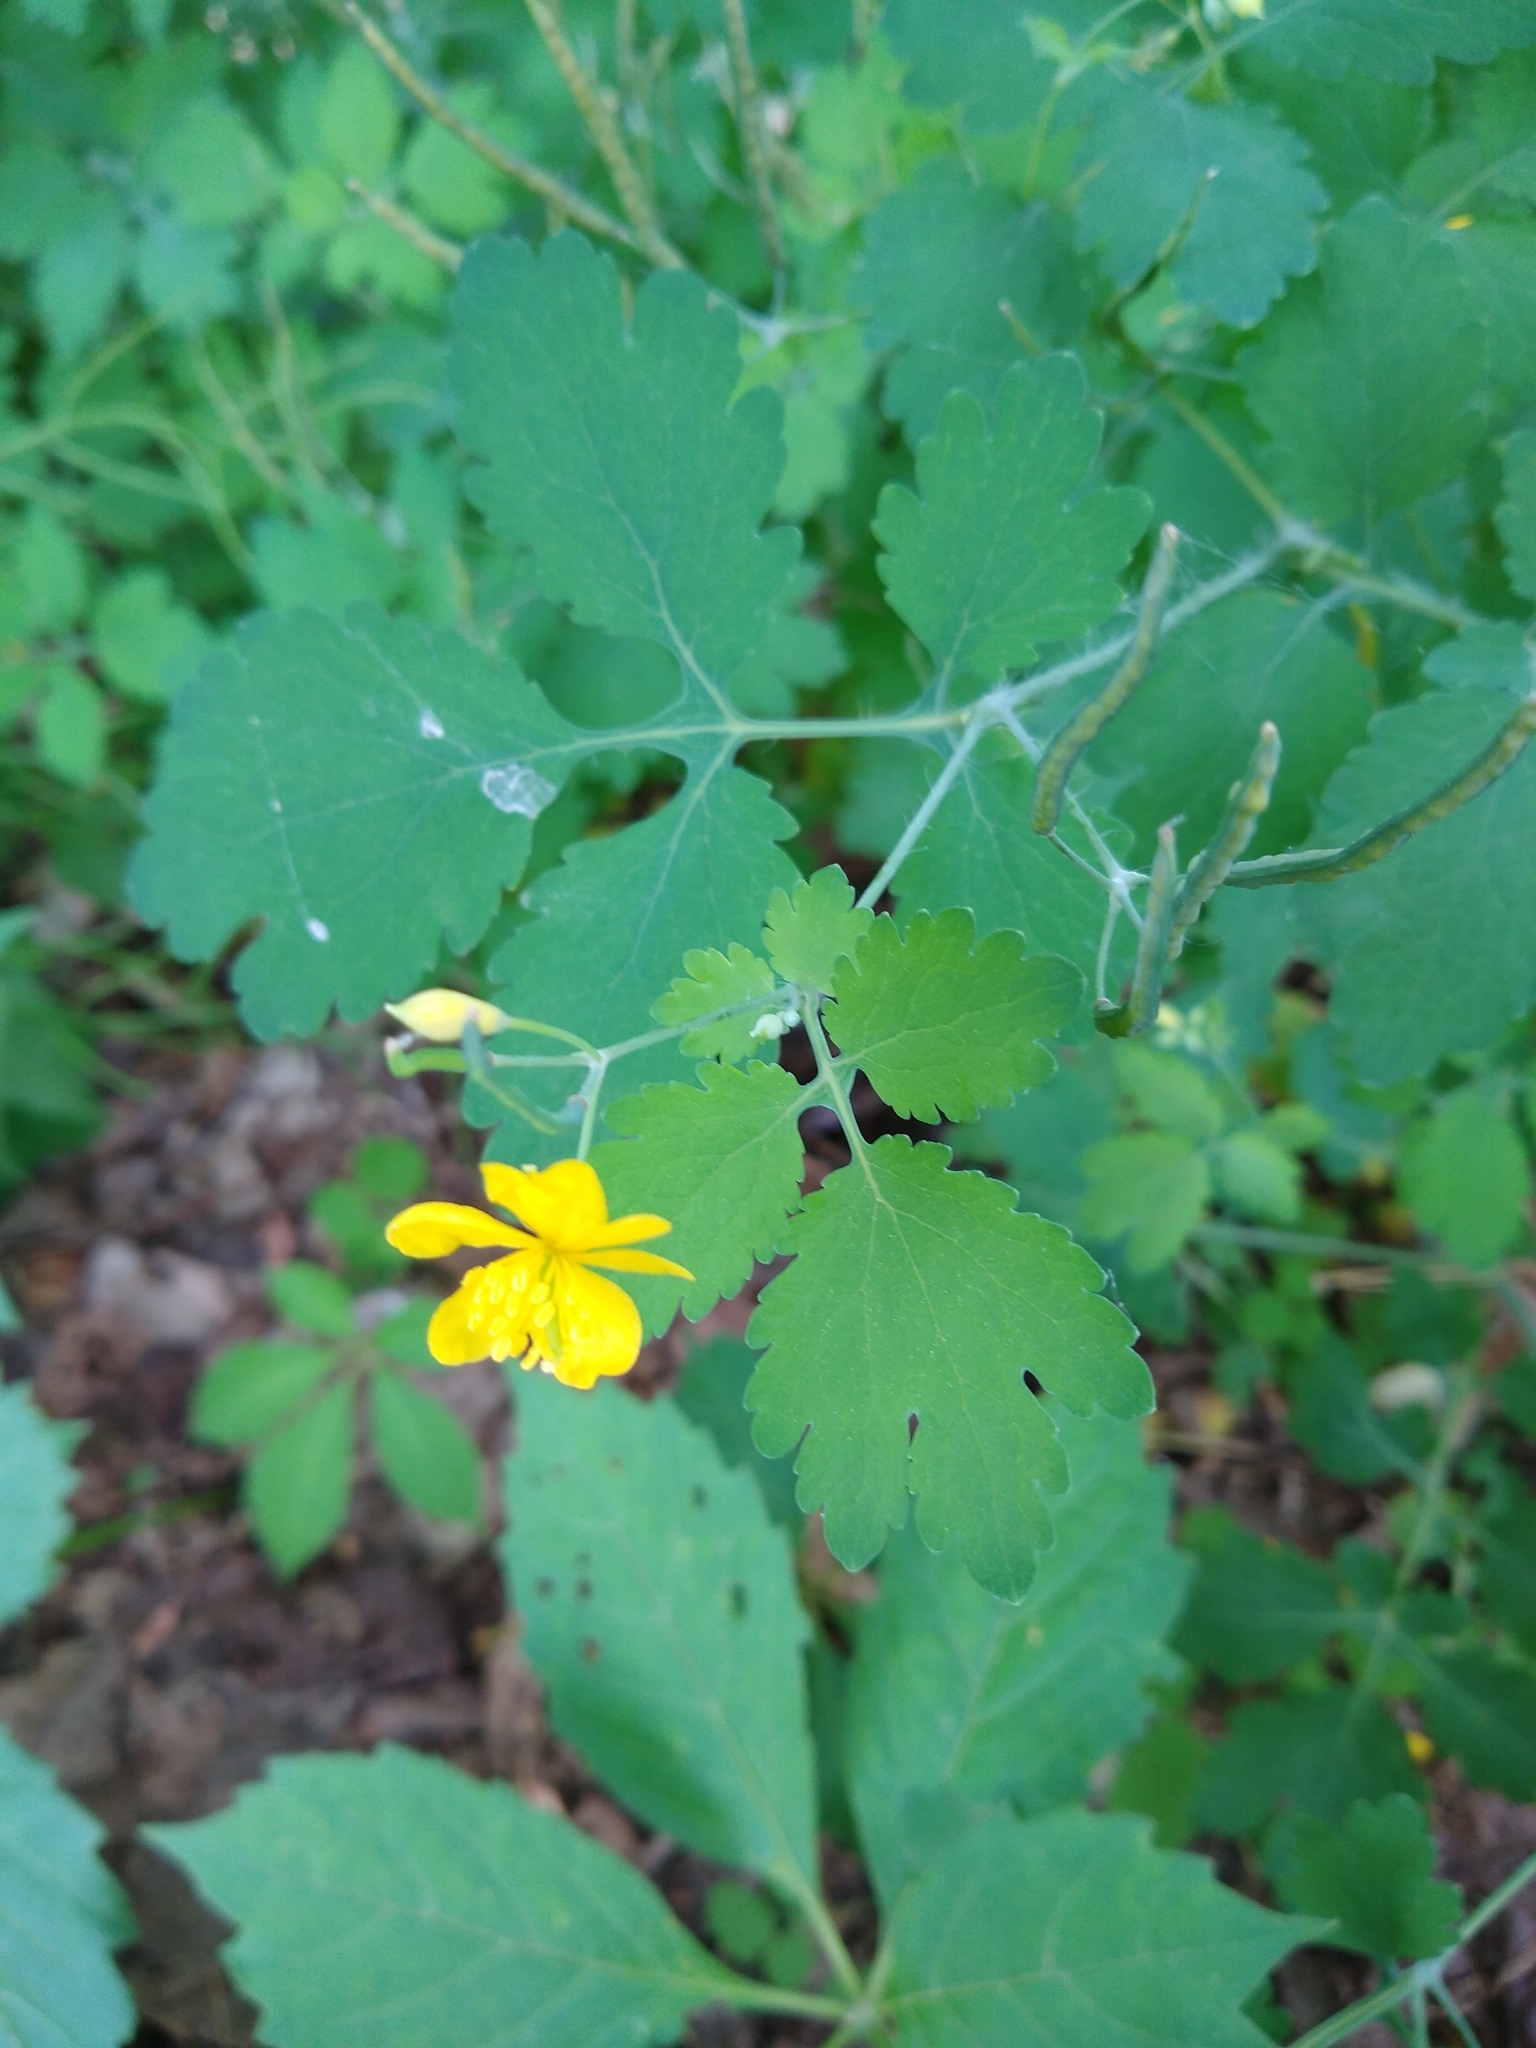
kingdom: Plantae
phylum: Tracheophyta
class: Magnoliopsida
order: Ranunculales
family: Papaveraceae
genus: Chelidonium
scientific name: Chelidonium majus
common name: Greater celandine
